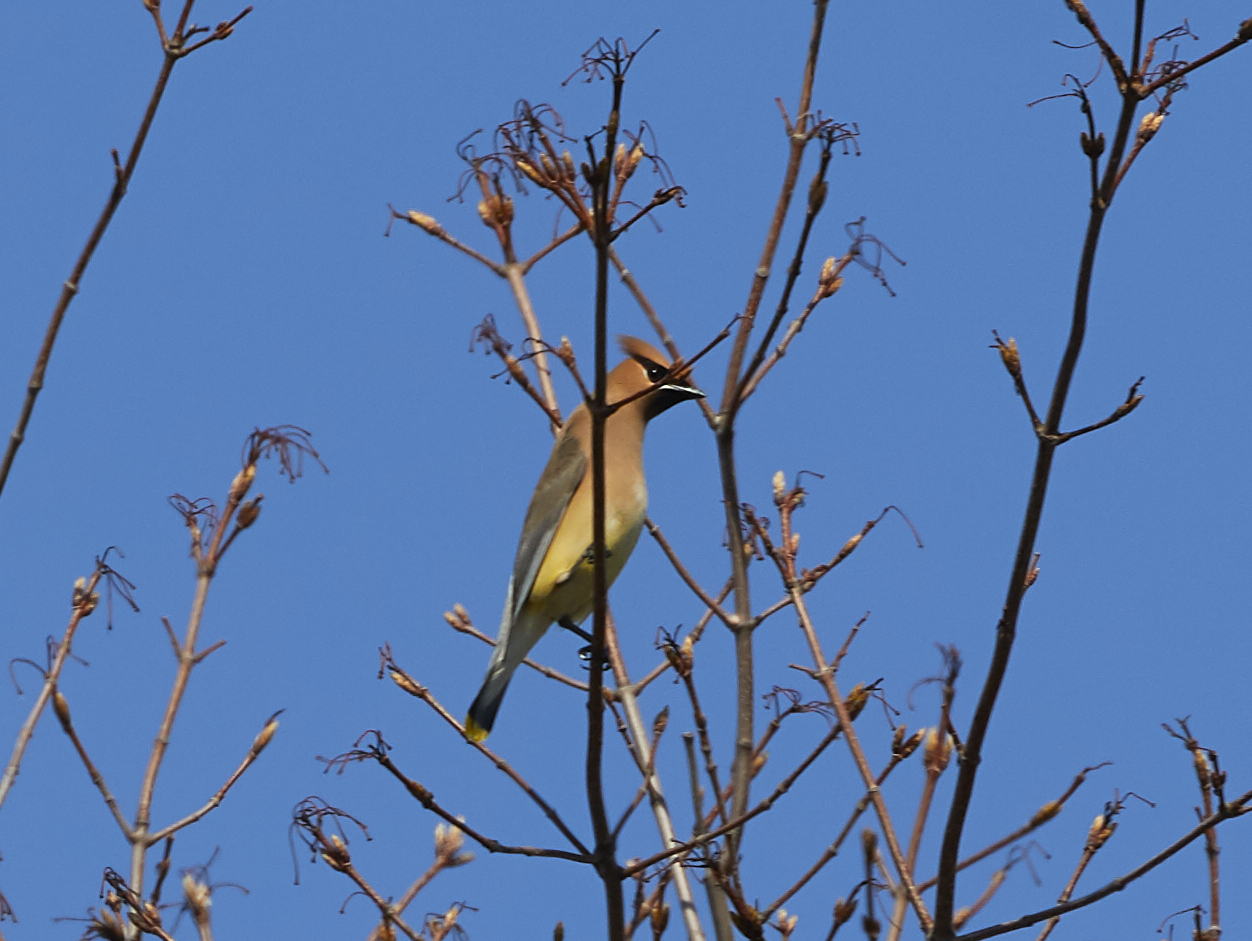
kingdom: Animalia
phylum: Chordata
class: Aves
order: Passeriformes
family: Bombycillidae
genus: Bombycilla
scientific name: Bombycilla cedrorum
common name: Cedar waxwing
